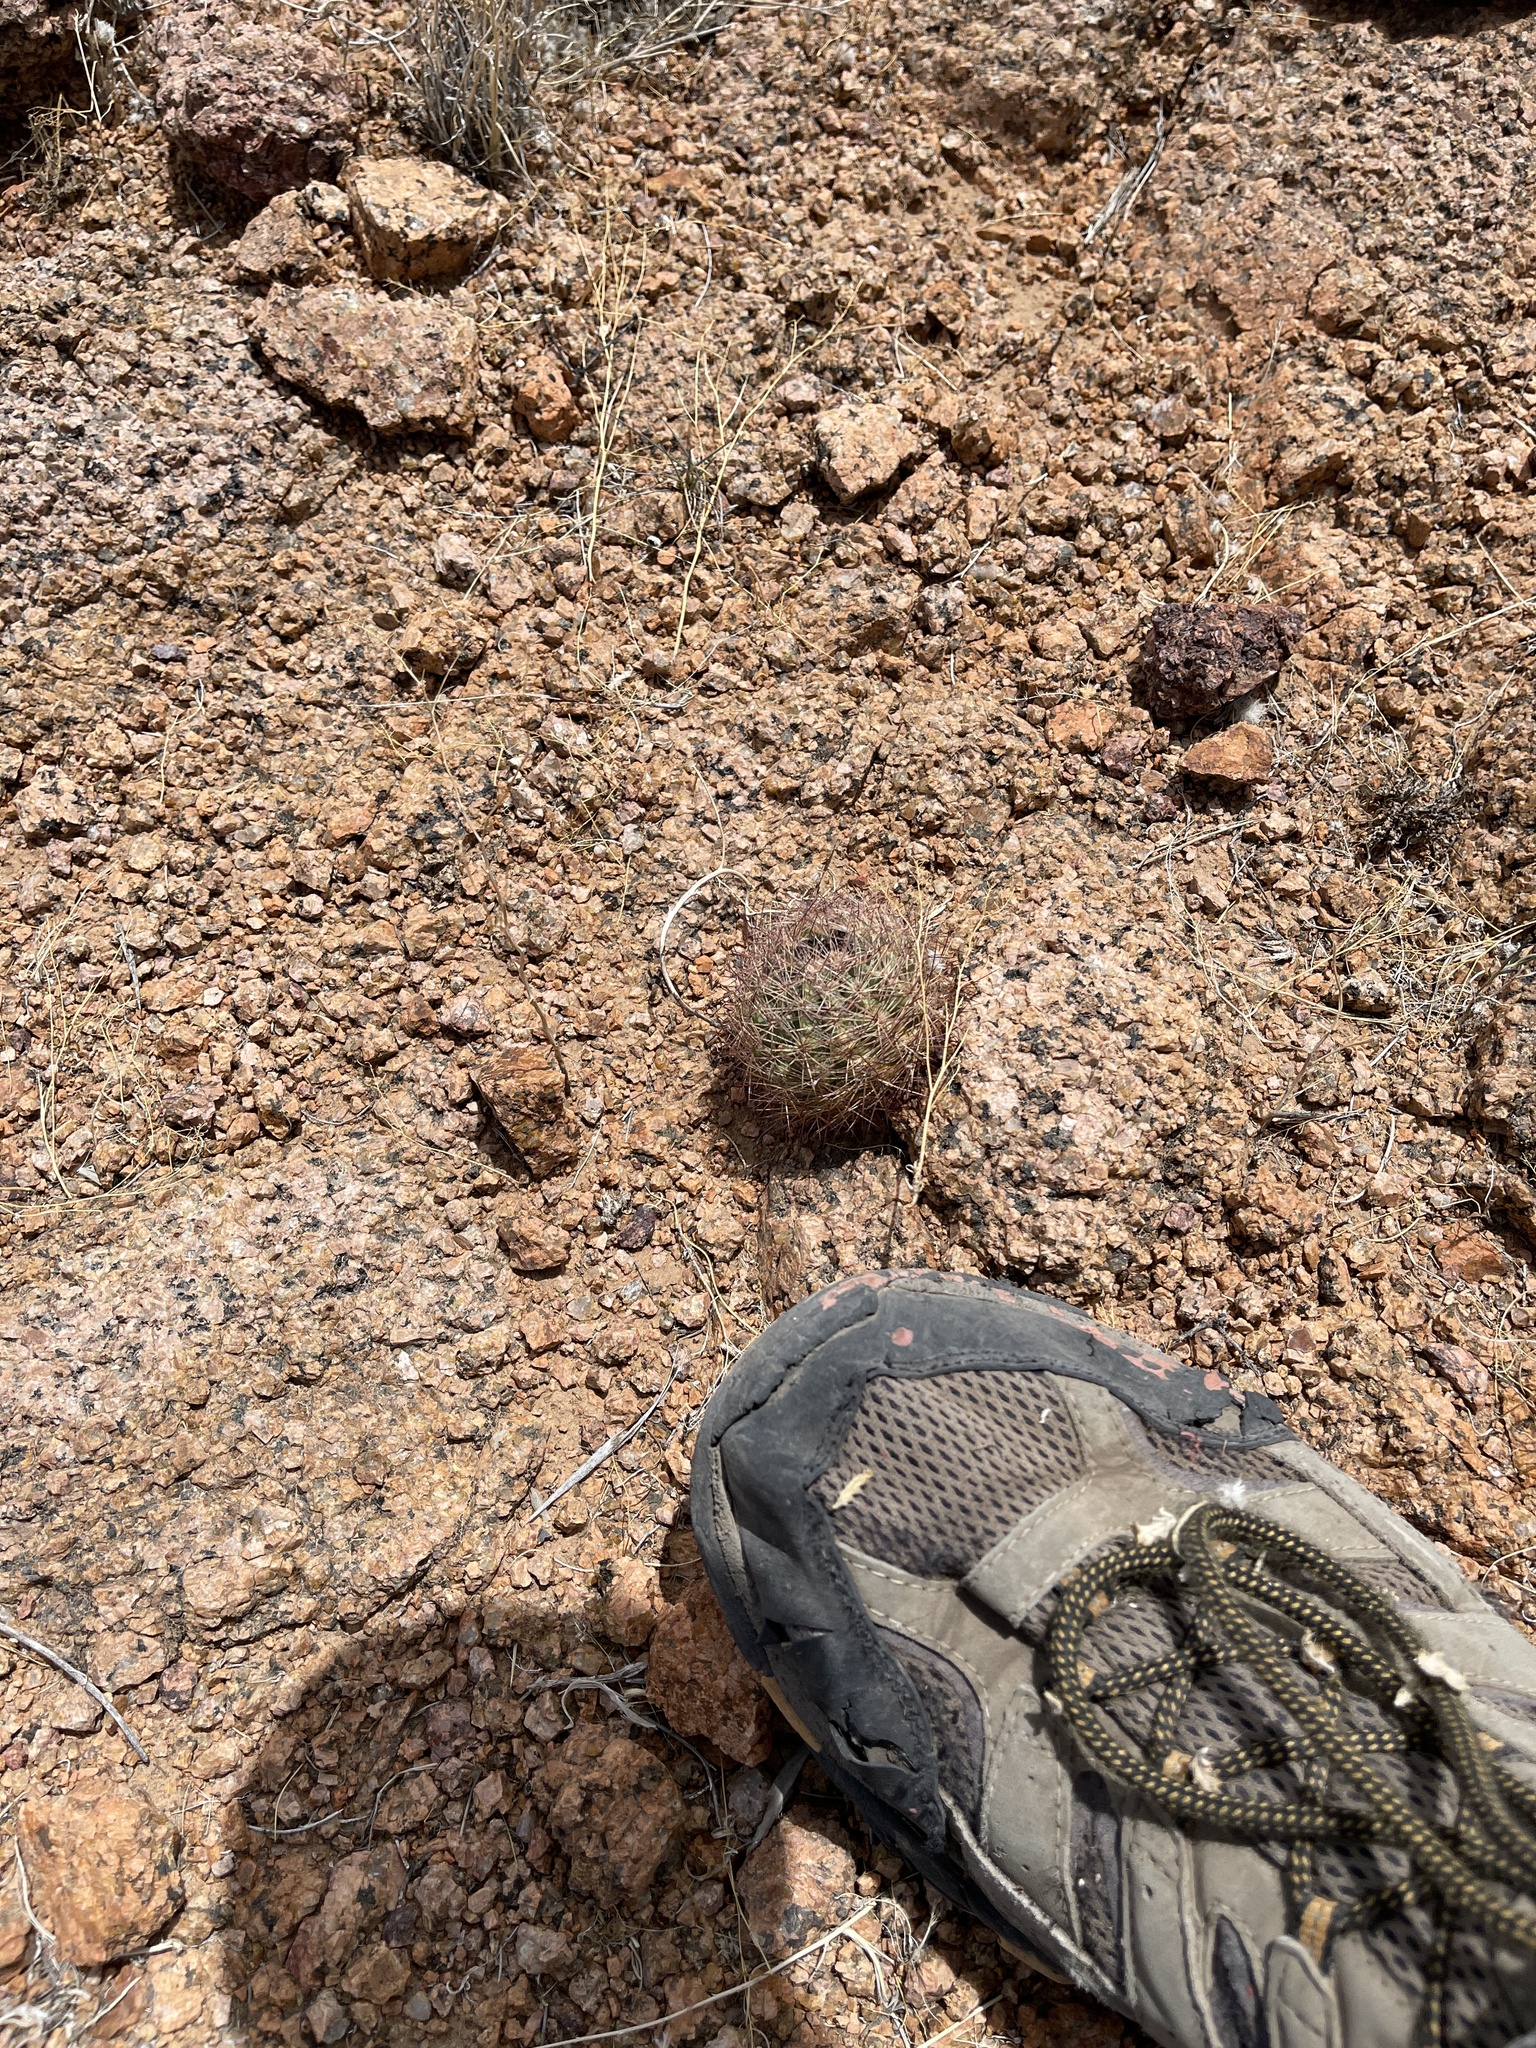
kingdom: Plantae
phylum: Tracheophyta
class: Magnoliopsida
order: Caryophyllales
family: Cactaceae
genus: Sclerocactus
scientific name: Sclerocactus intertextus
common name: White fish-hook cactus
